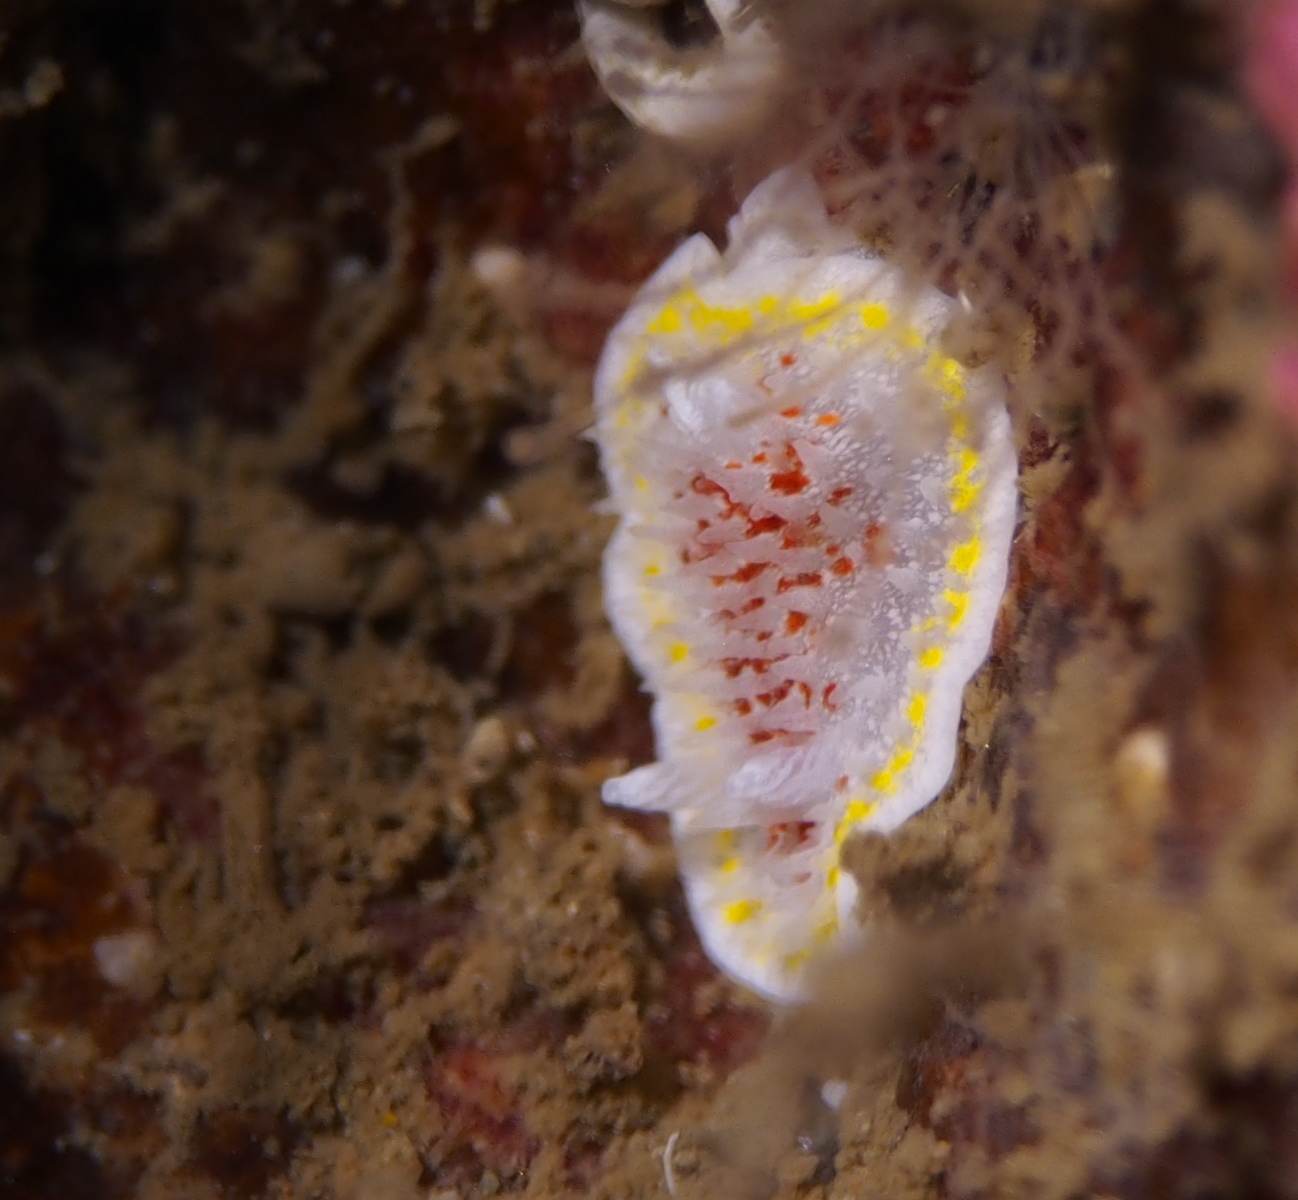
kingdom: Animalia
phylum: Mollusca
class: Gastropoda
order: Nudibranchia
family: Calycidorididae
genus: Diaphorodoris
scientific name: Diaphorodoris luteocincta
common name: Fried egg nudibranch
